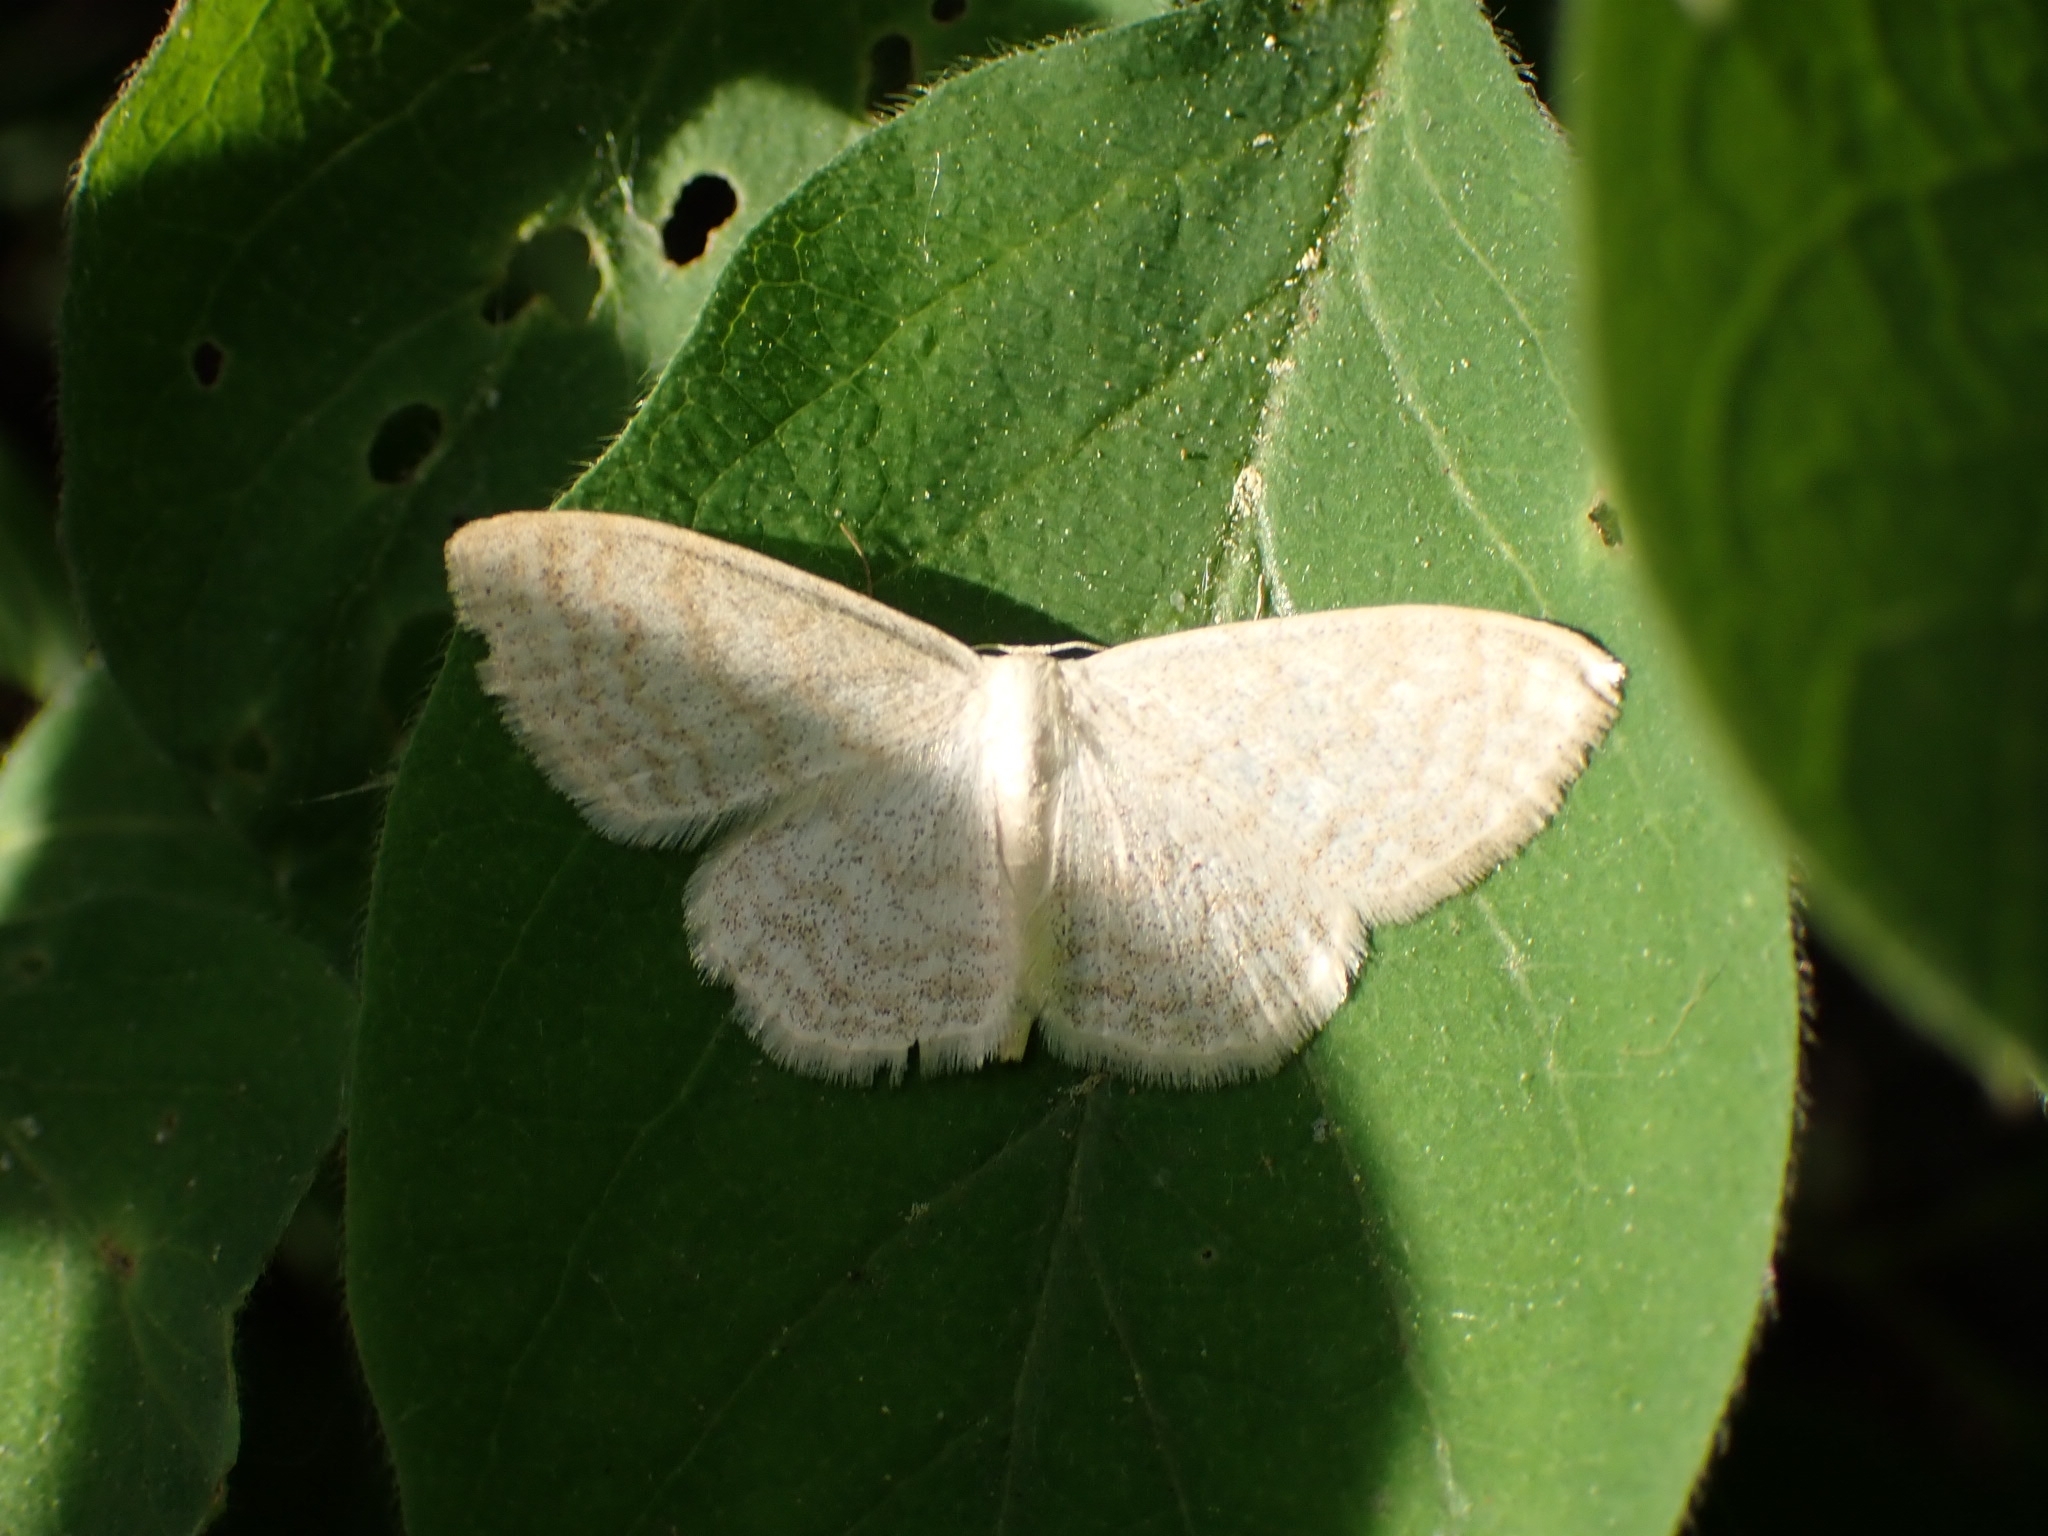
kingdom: Animalia
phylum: Arthropoda
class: Insecta
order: Lepidoptera
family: Geometridae
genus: Scopula
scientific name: Scopula floslactata
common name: Cream wave
